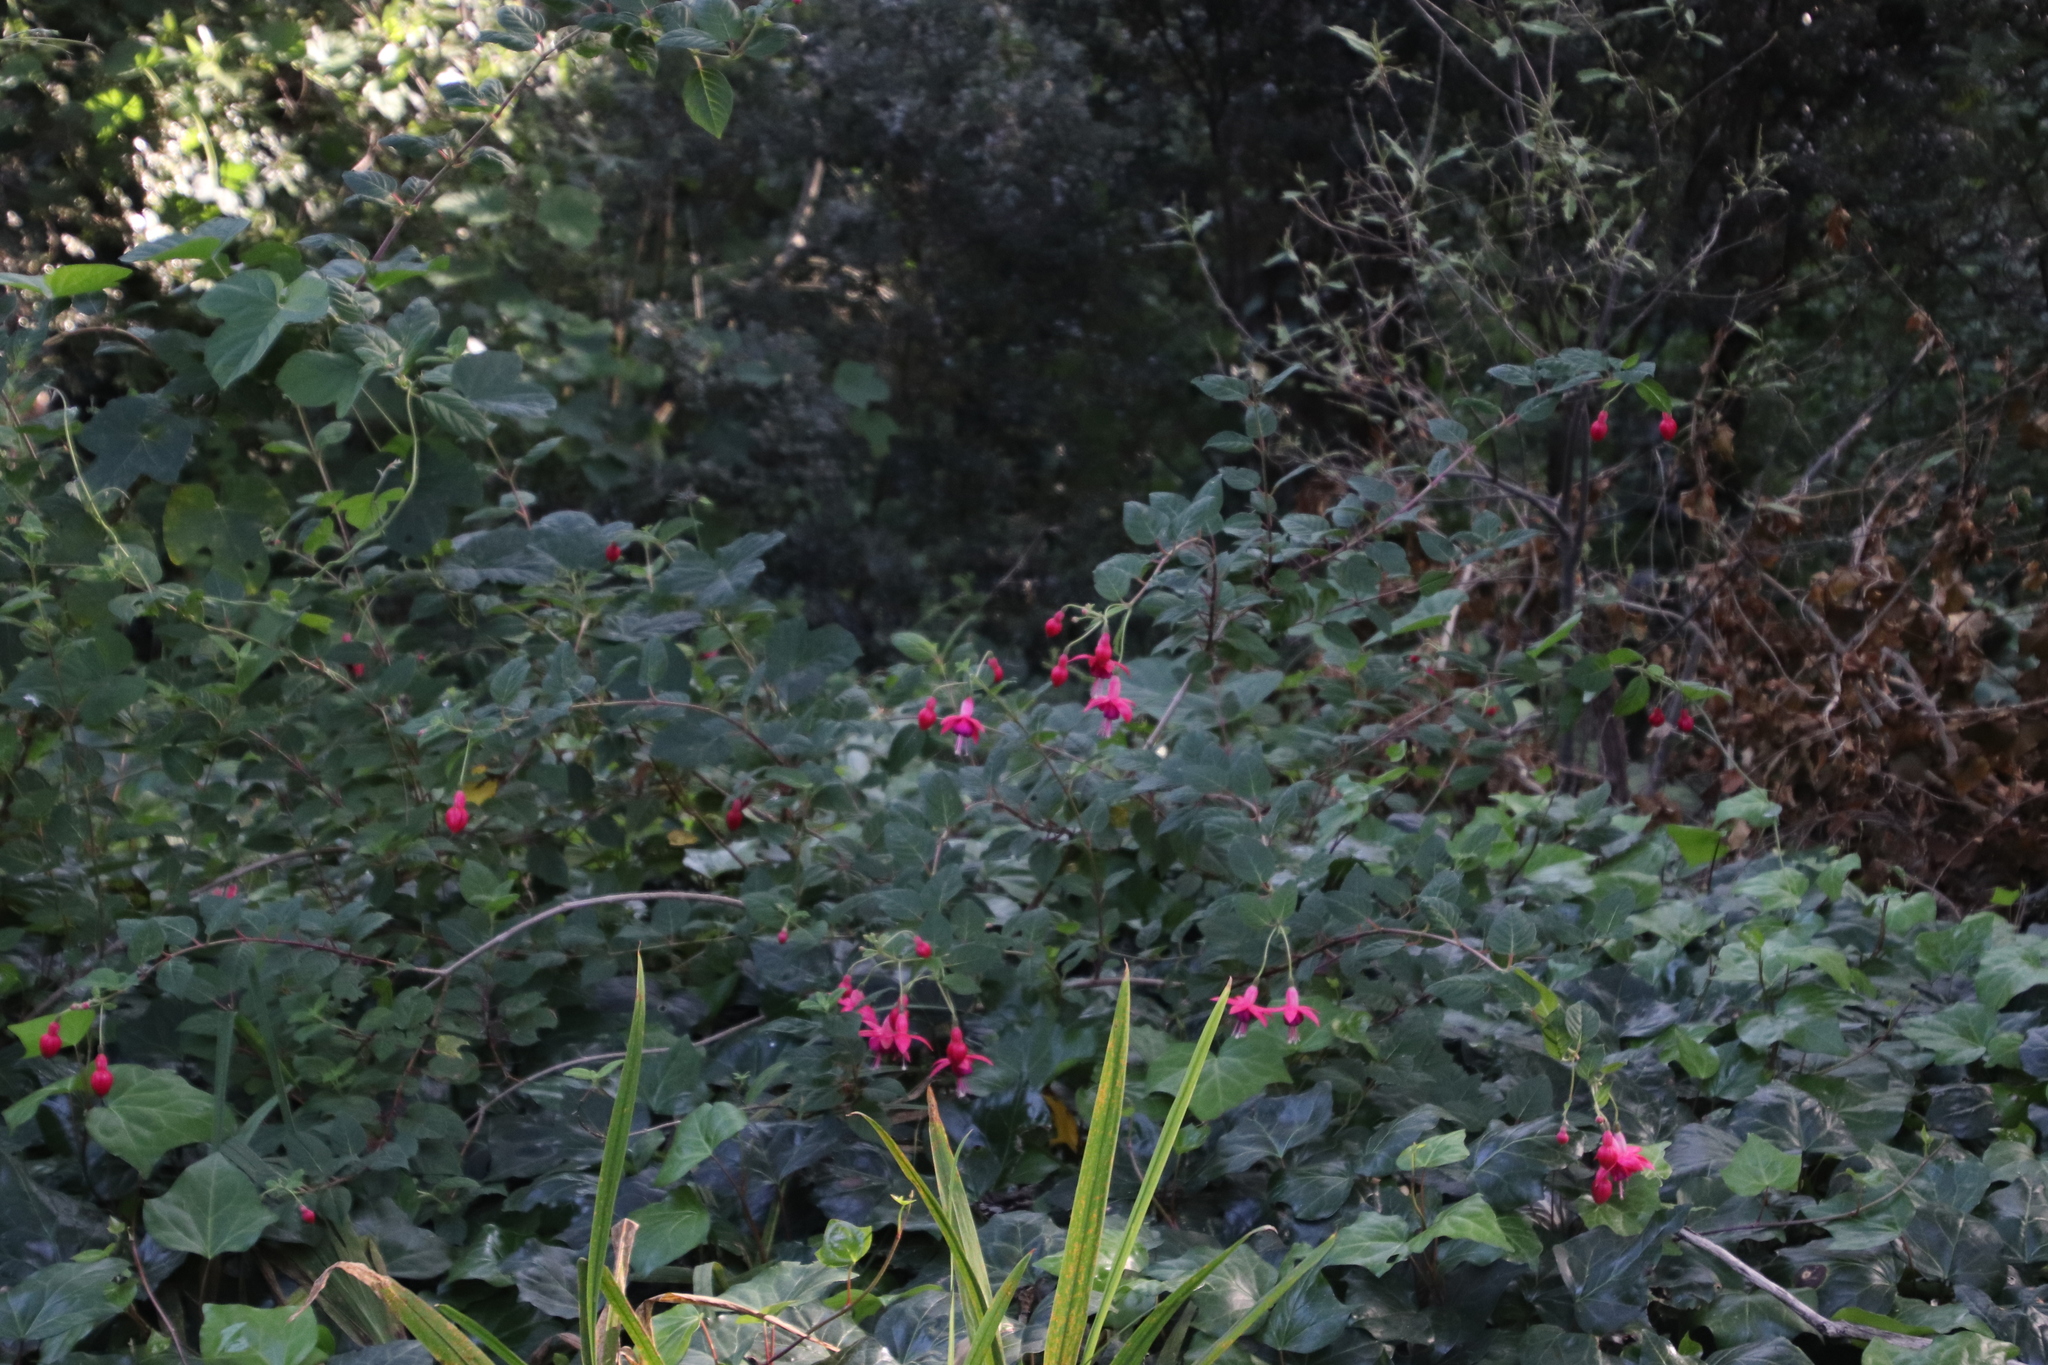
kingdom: Plantae
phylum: Tracheophyta
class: Magnoliopsida
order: Myrtales
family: Onagraceae
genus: Fuchsia
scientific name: Fuchsia hybrida
